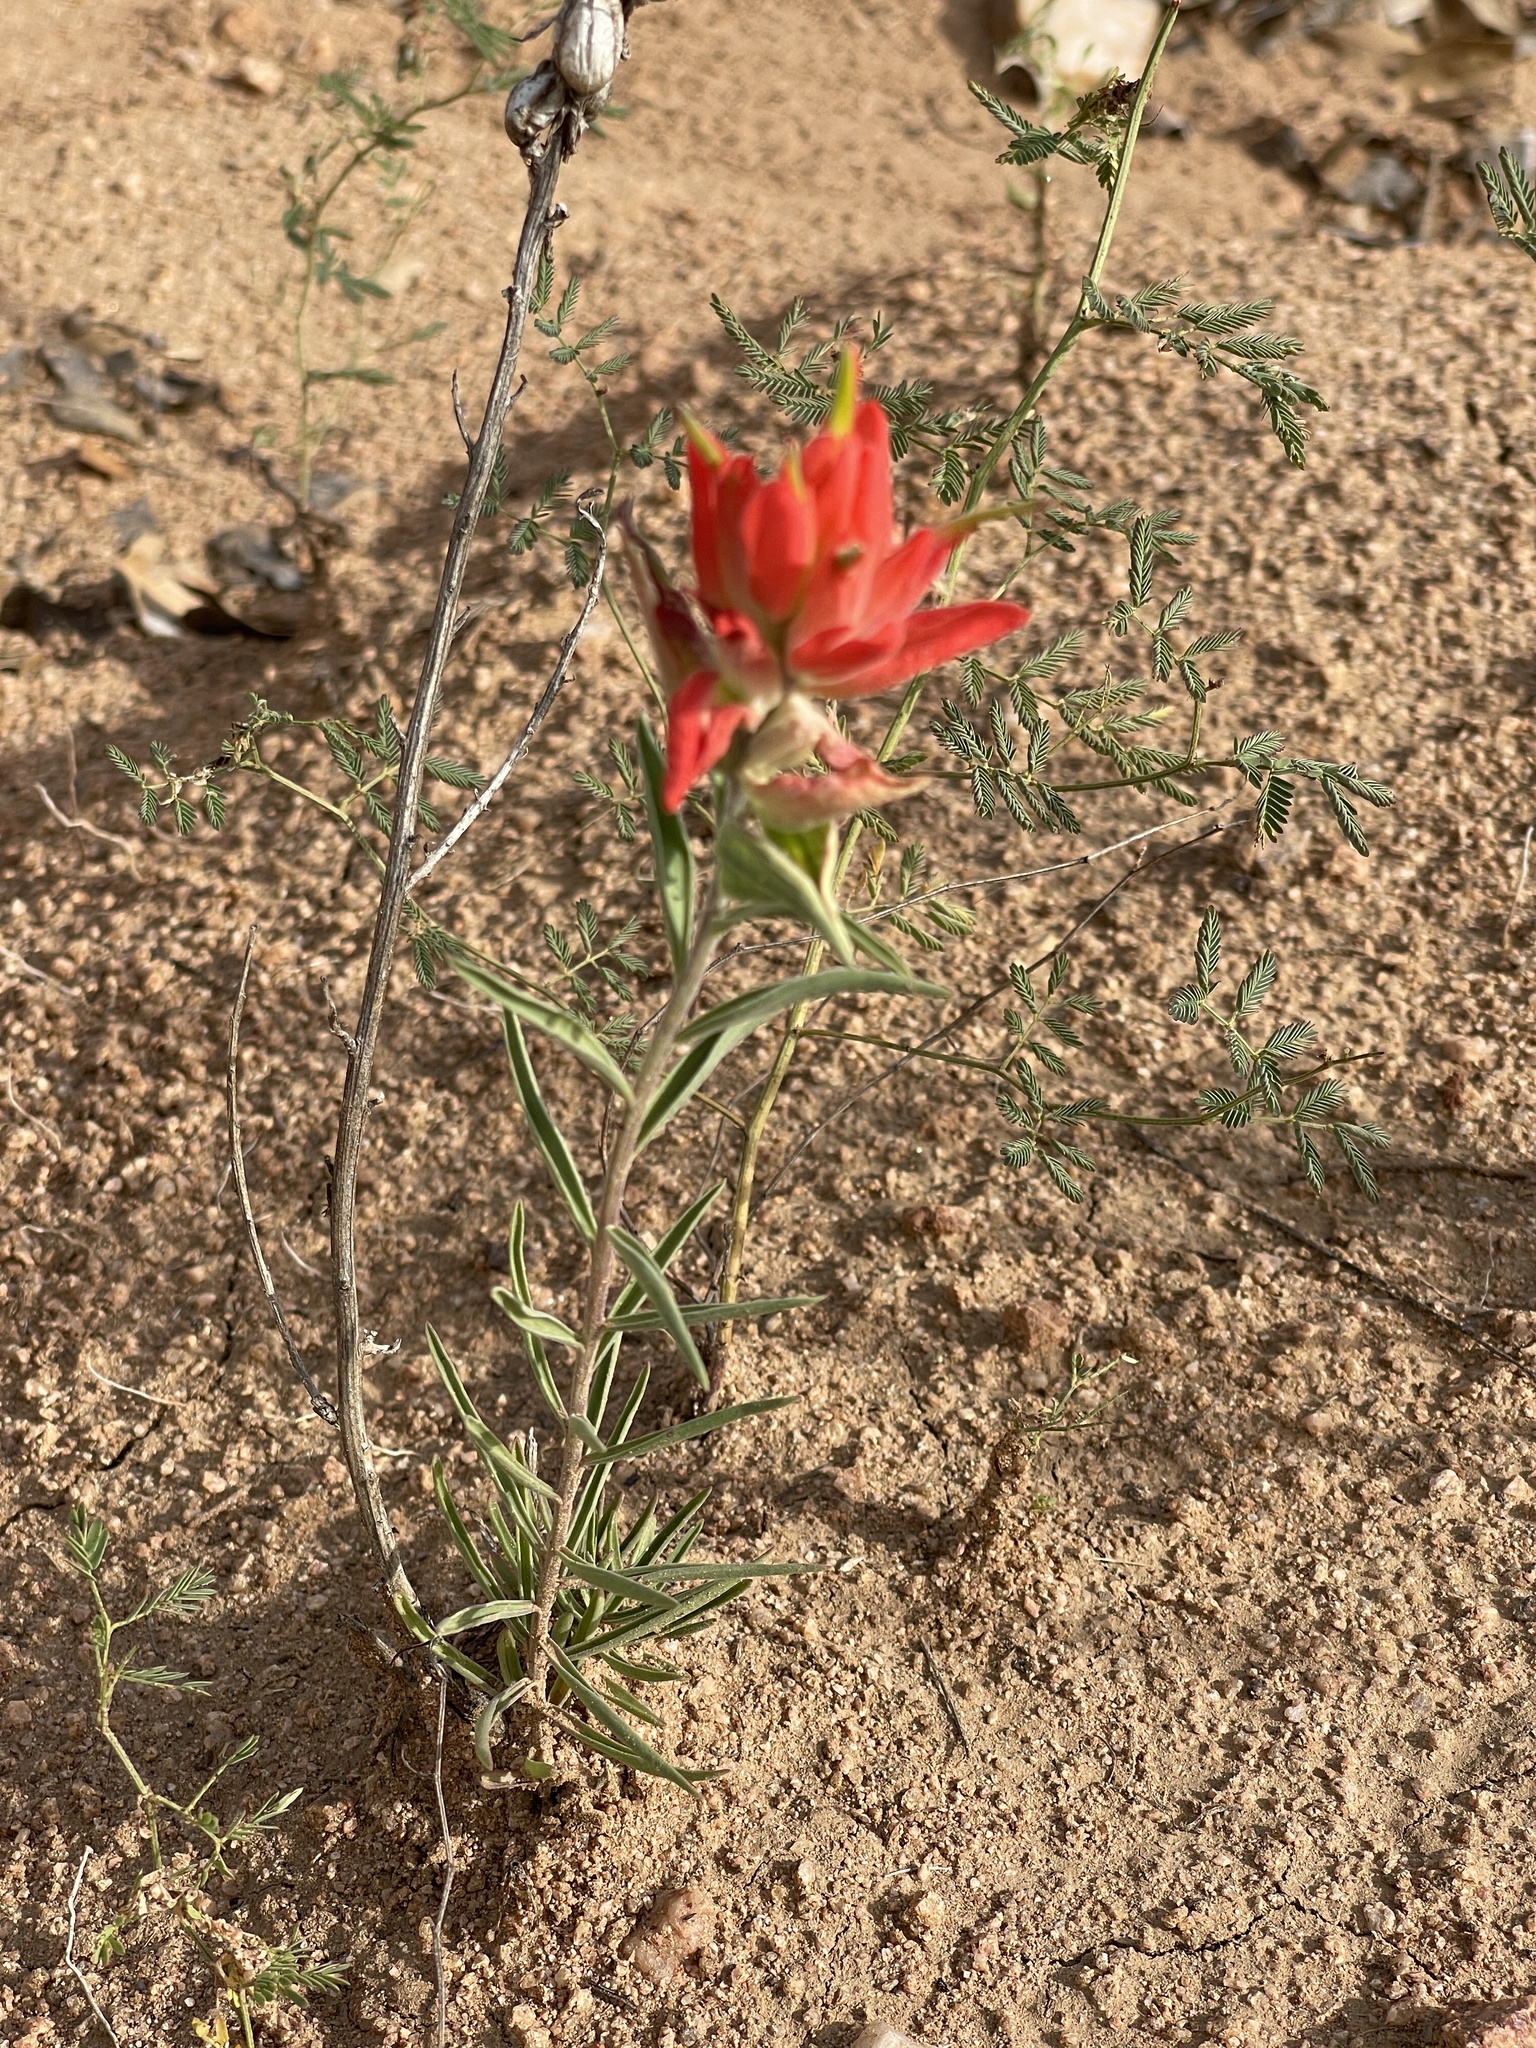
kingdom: Plantae
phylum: Tracheophyta
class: Magnoliopsida
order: Lamiales
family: Orobanchaceae
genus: Castilleja
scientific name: Castilleja integra
